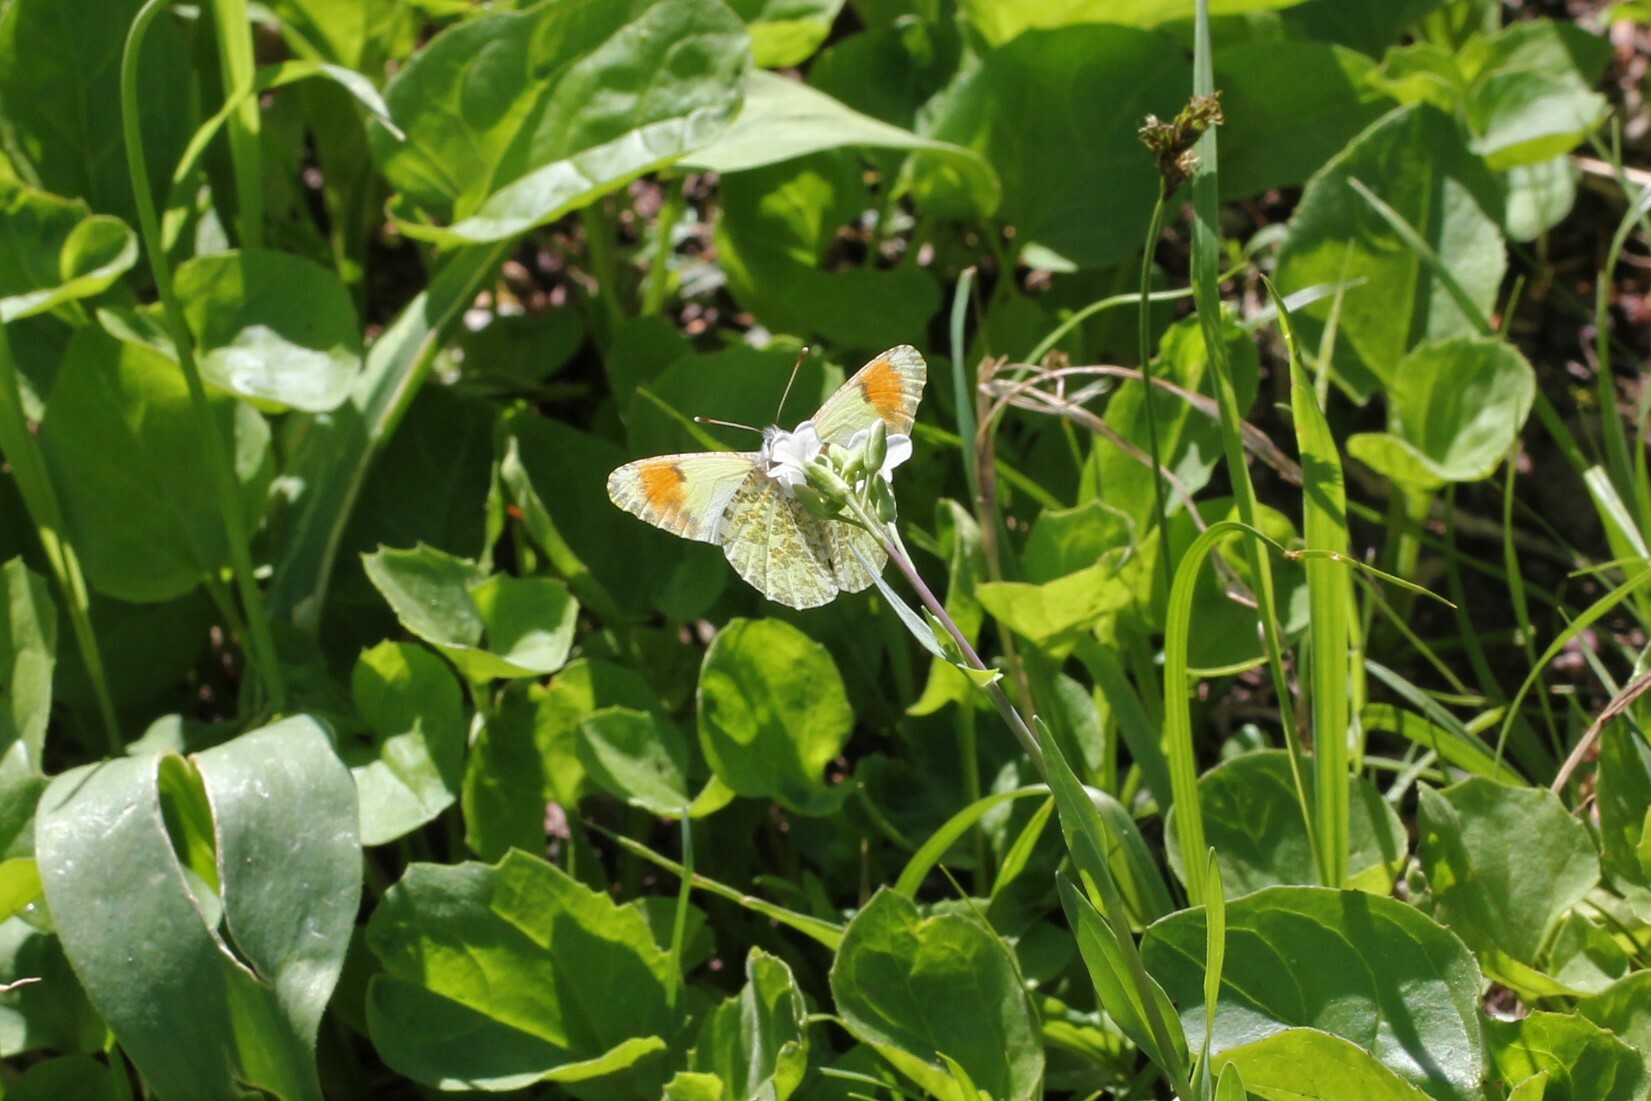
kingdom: Animalia
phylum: Arthropoda
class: Insecta
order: Lepidoptera
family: Pieridae
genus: Anthocharis
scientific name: Anthocharis julia
